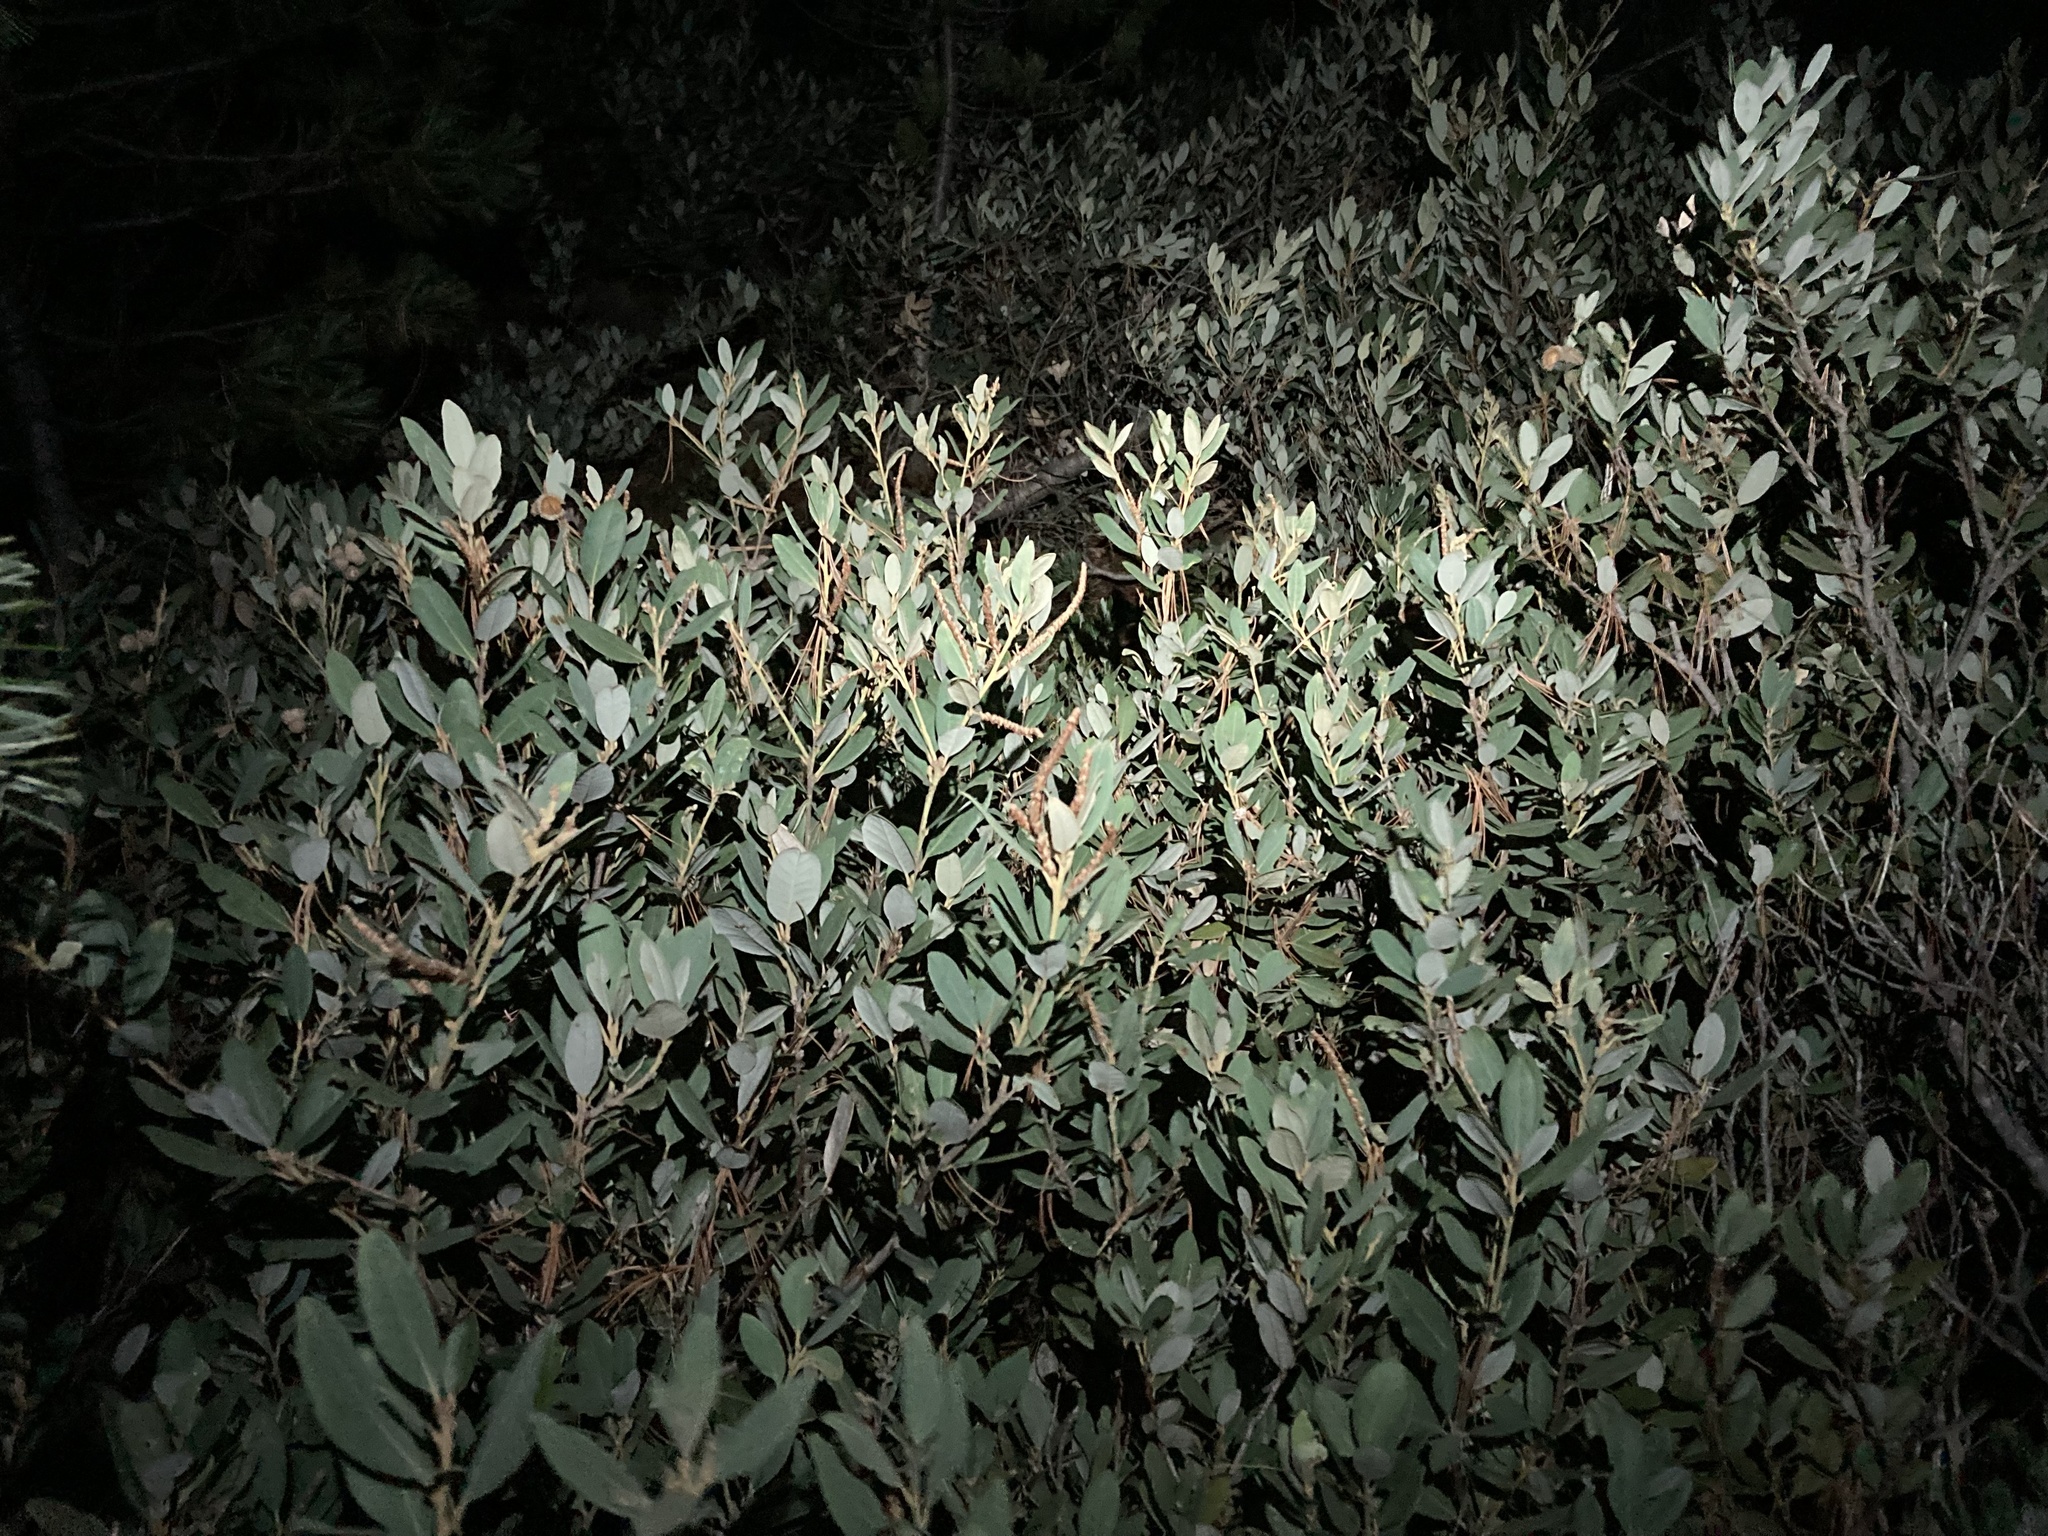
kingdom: Plantae
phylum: Tracheophyta
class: Magnoliopsida
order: Fagales
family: Fagaceae
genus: Chrysolepis
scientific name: Chrysolepis sempervirens
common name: Bush chinquapin
